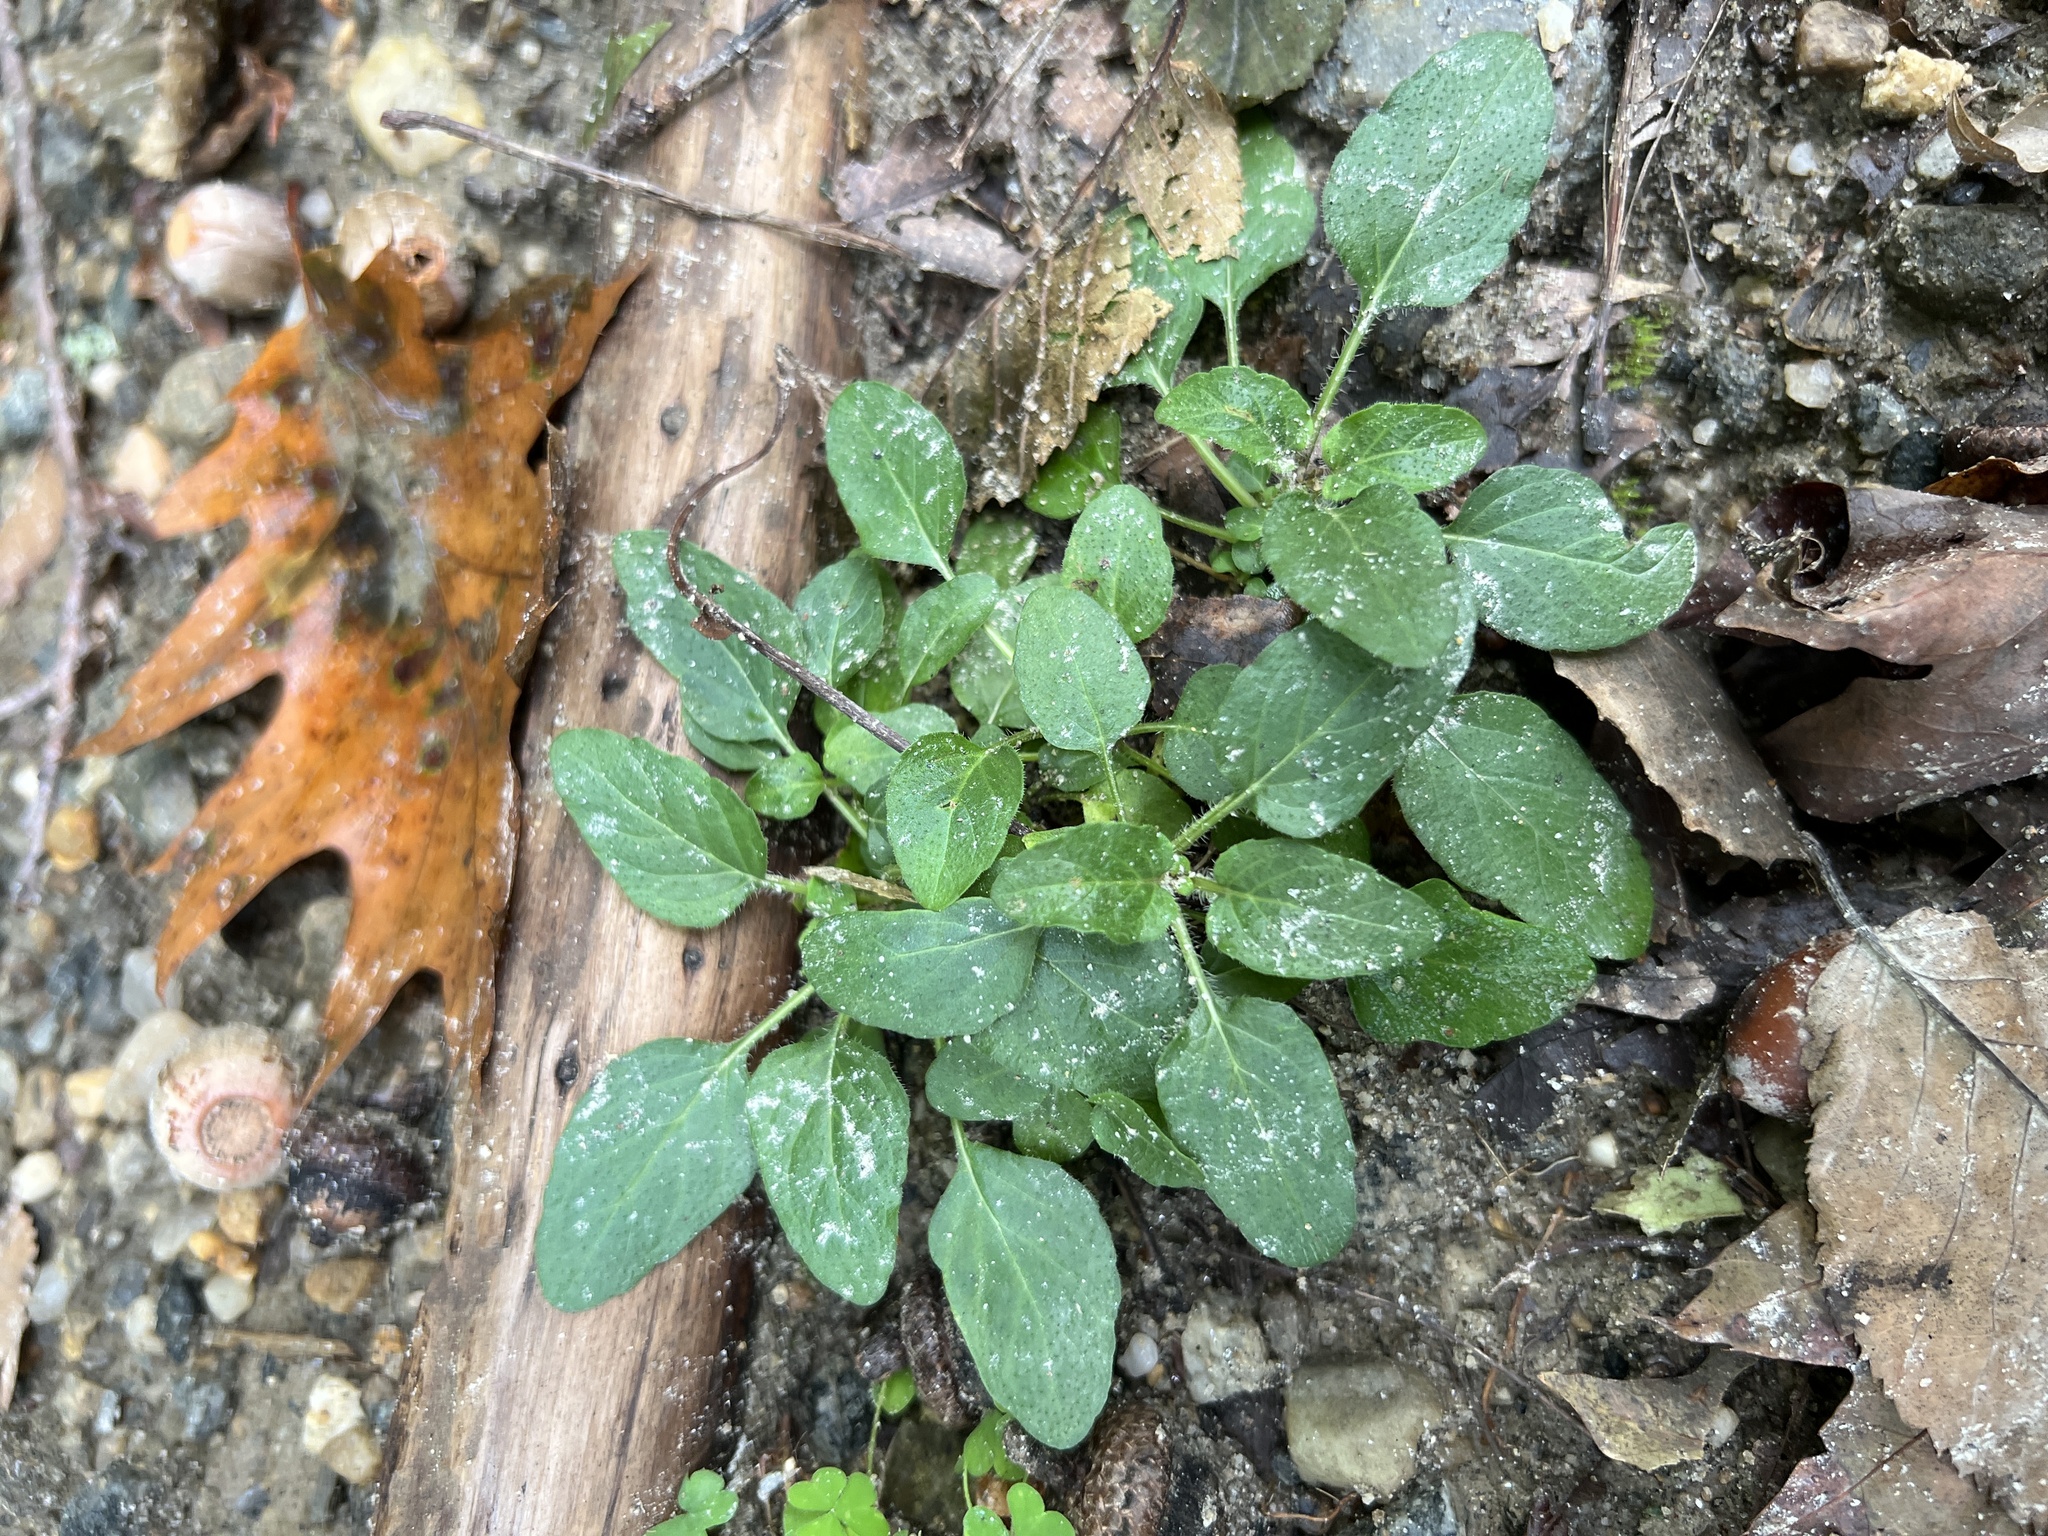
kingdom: Plantae
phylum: Tracheophyta
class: Magnoliopsida
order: Lamiales
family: Lamiaceae
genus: Prunella
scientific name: Prunella vulgaris
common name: Heal-all
